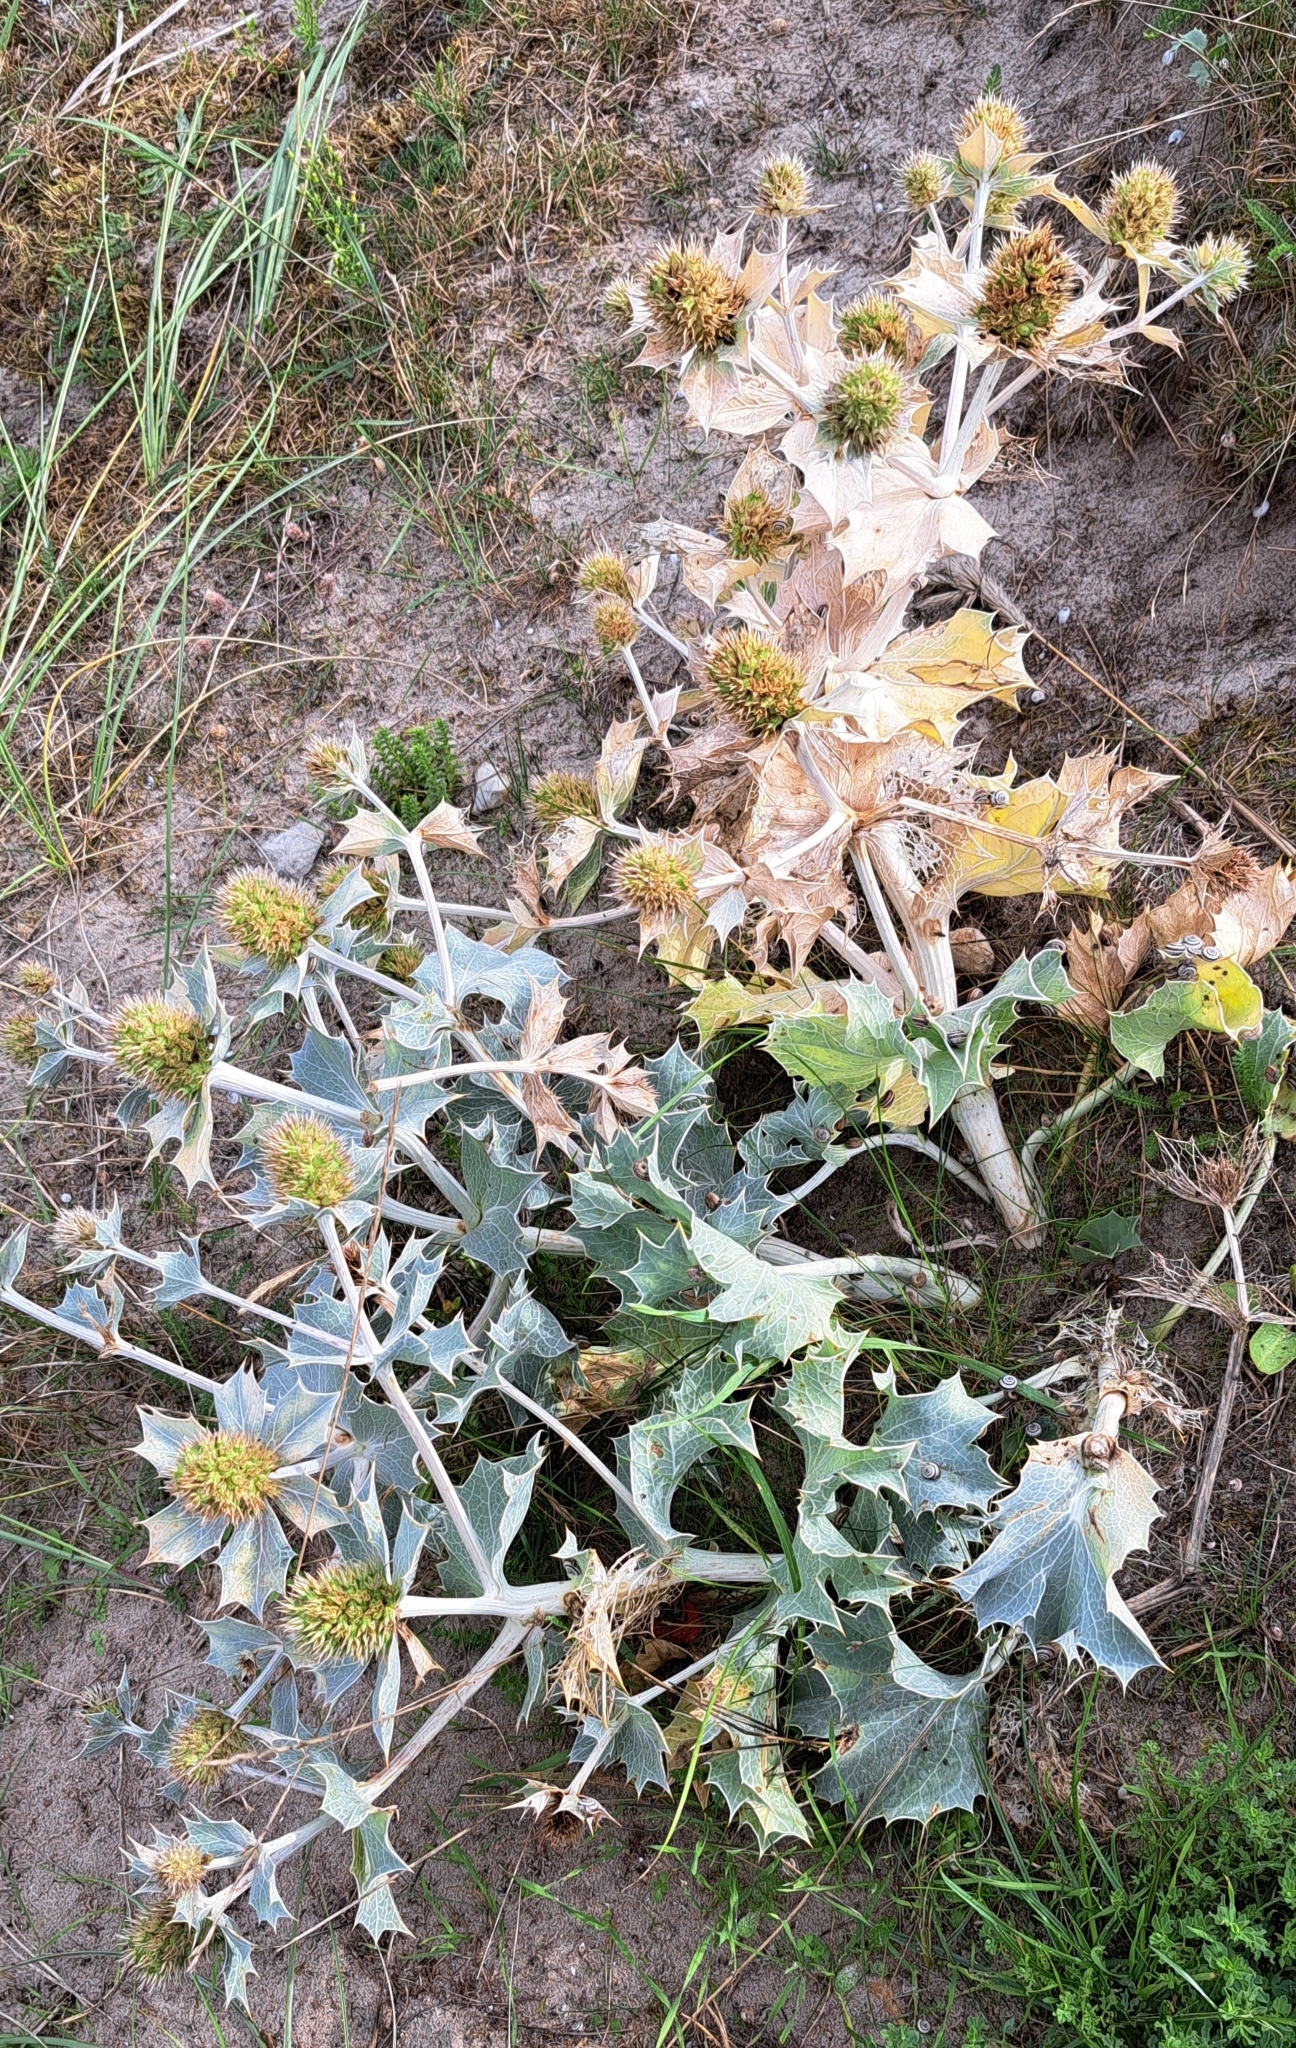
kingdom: Plantae
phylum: Tracheophyta
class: Magnoliopsida
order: Apiales
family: Apiaceae
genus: Eryngium
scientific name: Eryngium maritimum
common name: Sea-holly
